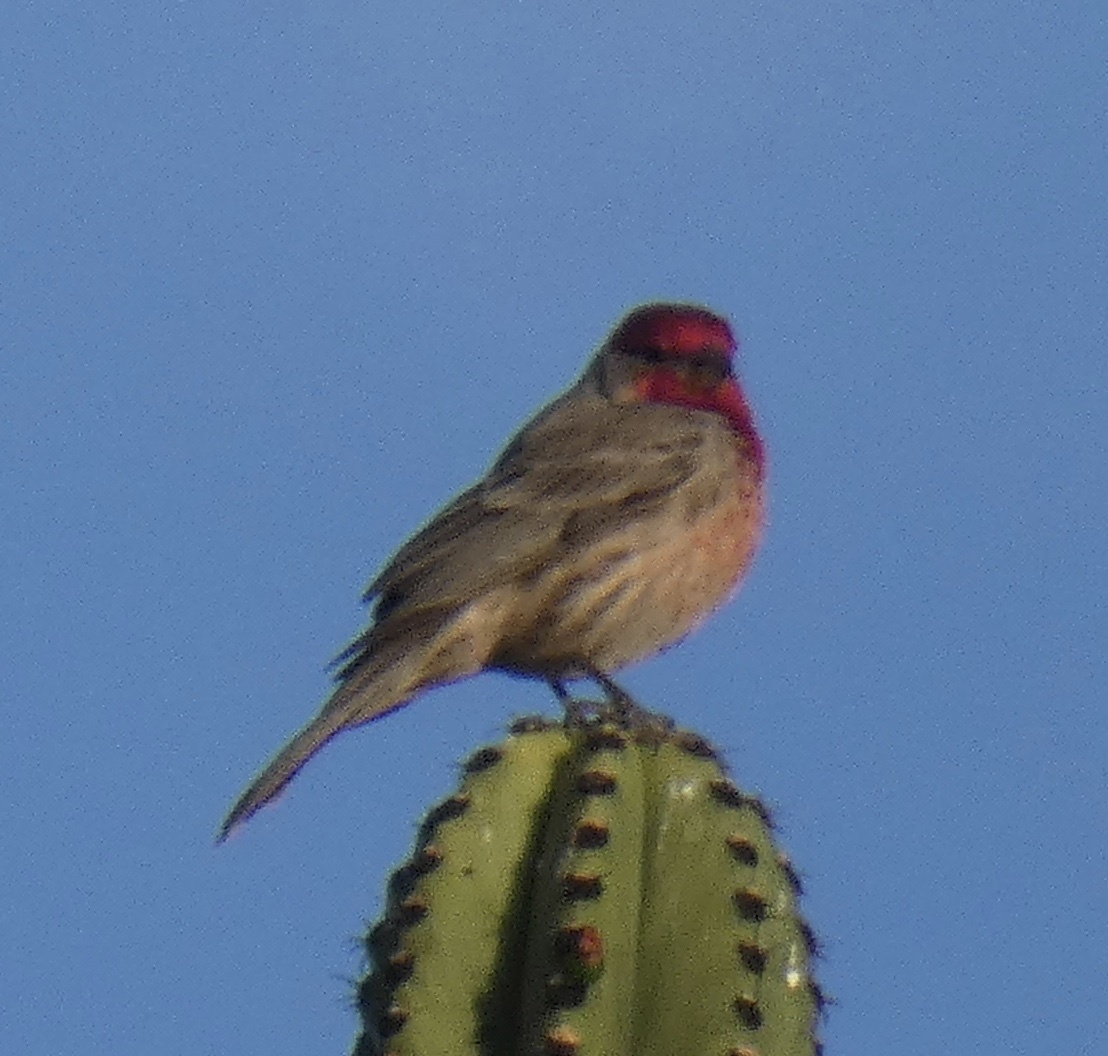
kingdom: Animalia
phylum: Chordata
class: Aves
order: Passeriformes
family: Fringillidae
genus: Haemorhous
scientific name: Haemorhous mexicanus
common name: House finch
